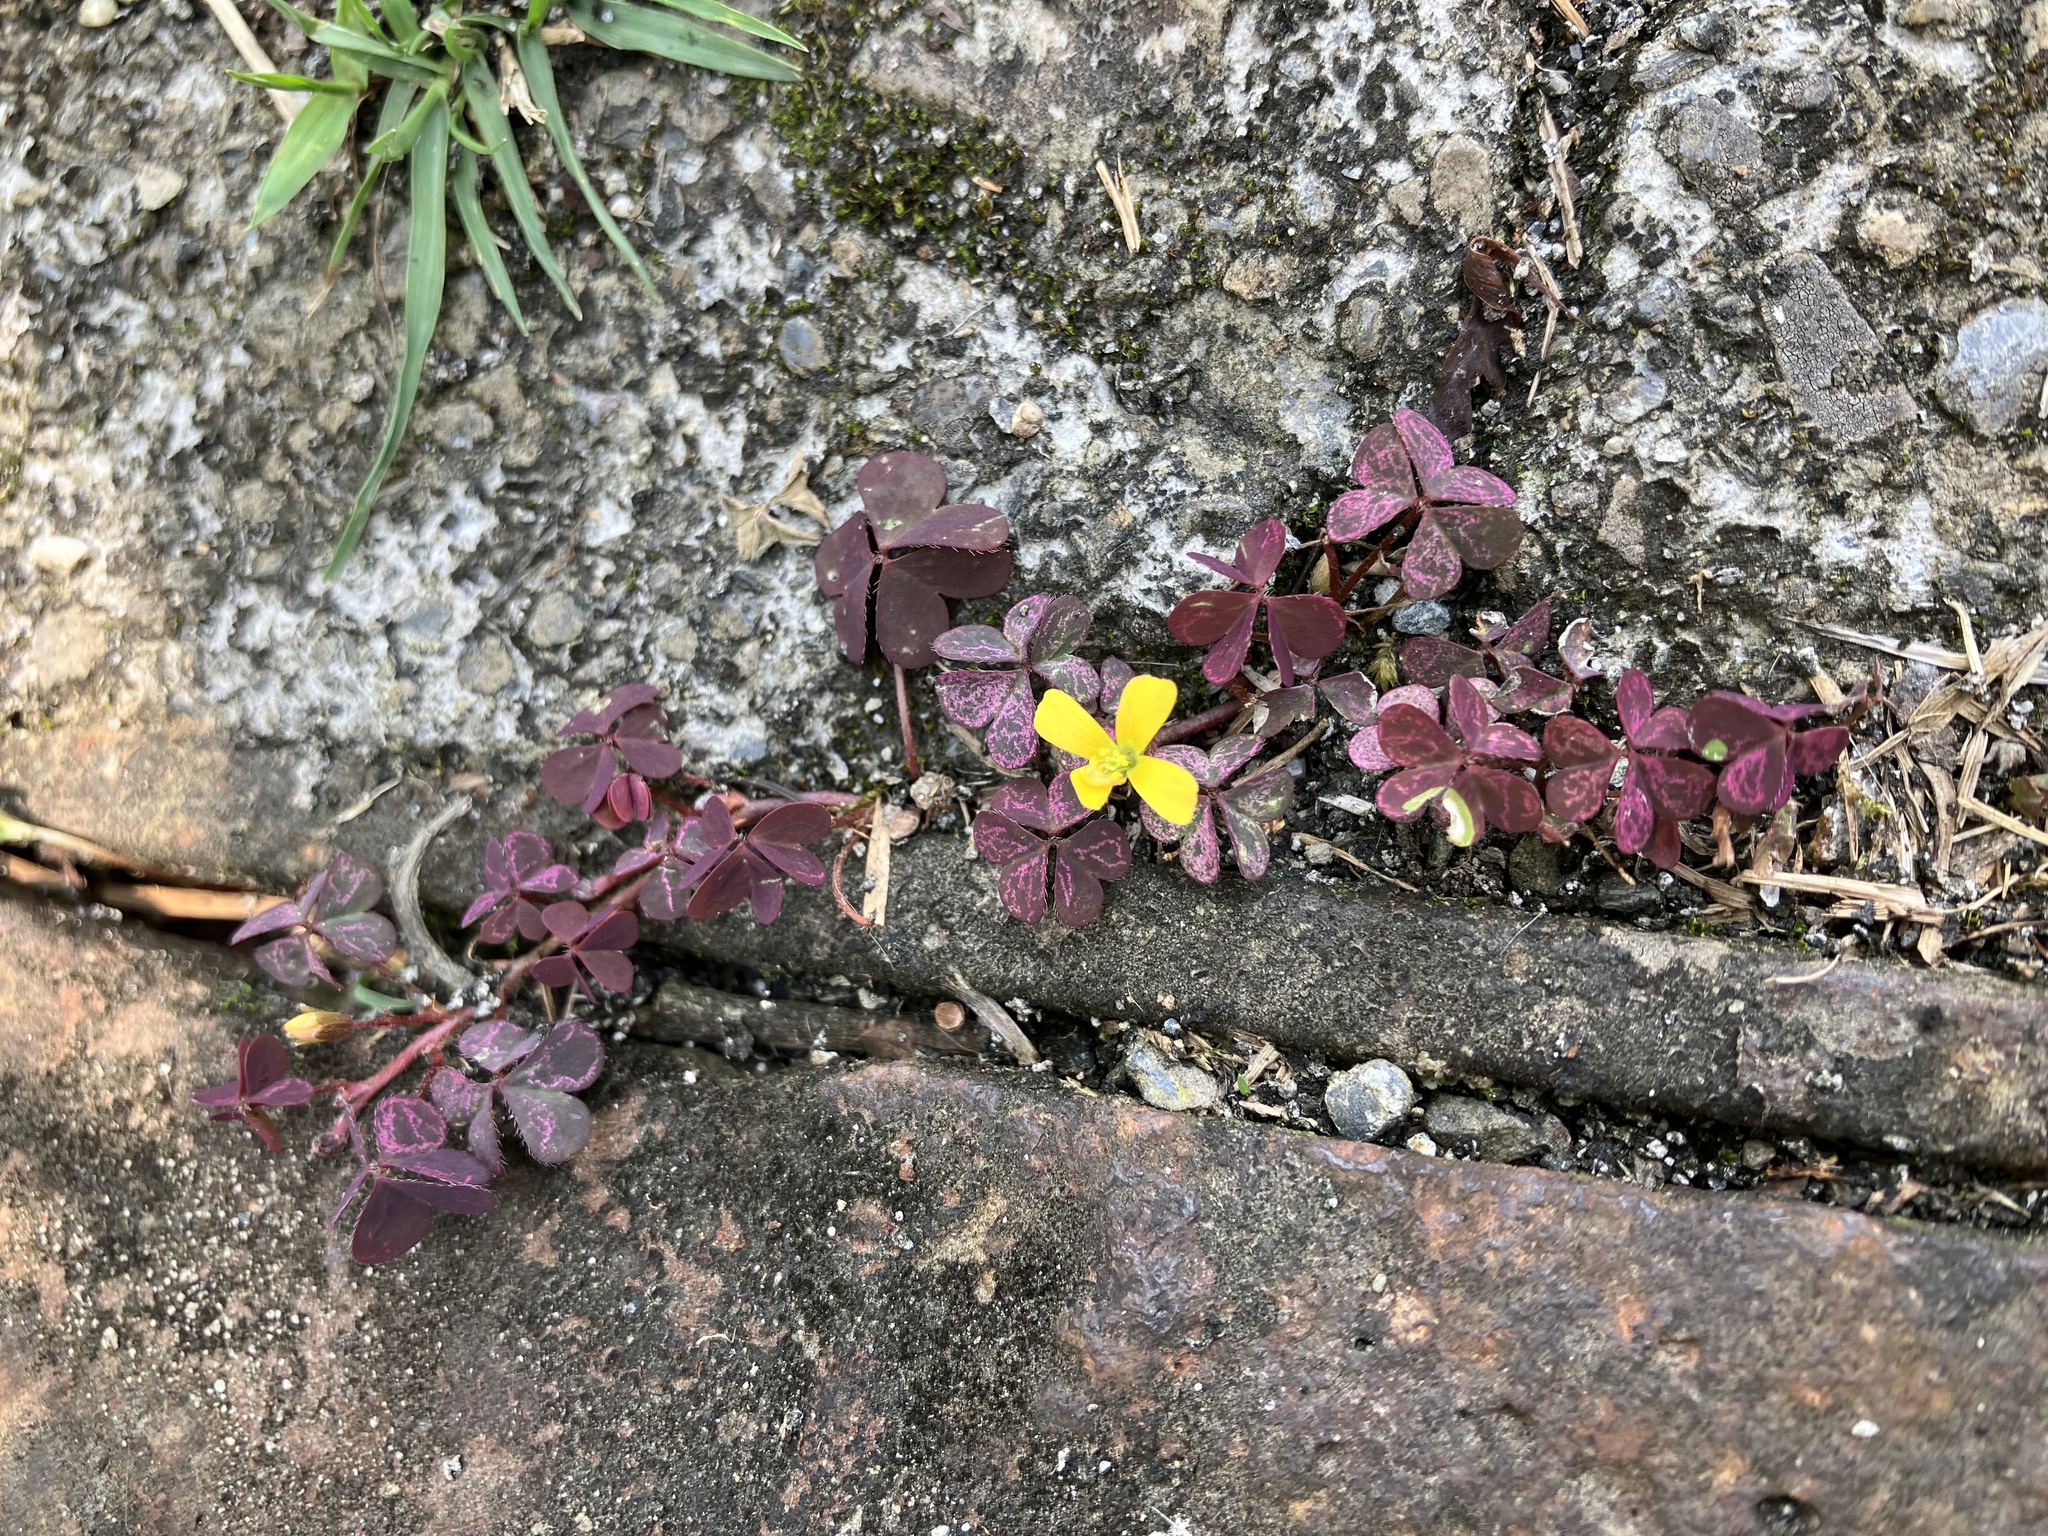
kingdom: Plantae
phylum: Tracheophyta
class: Magnoliopsida
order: Oxalidales
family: Oxalidaceae
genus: Oxalis
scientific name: Oxalis corniculata
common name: Procumbent yellow-sorrel
